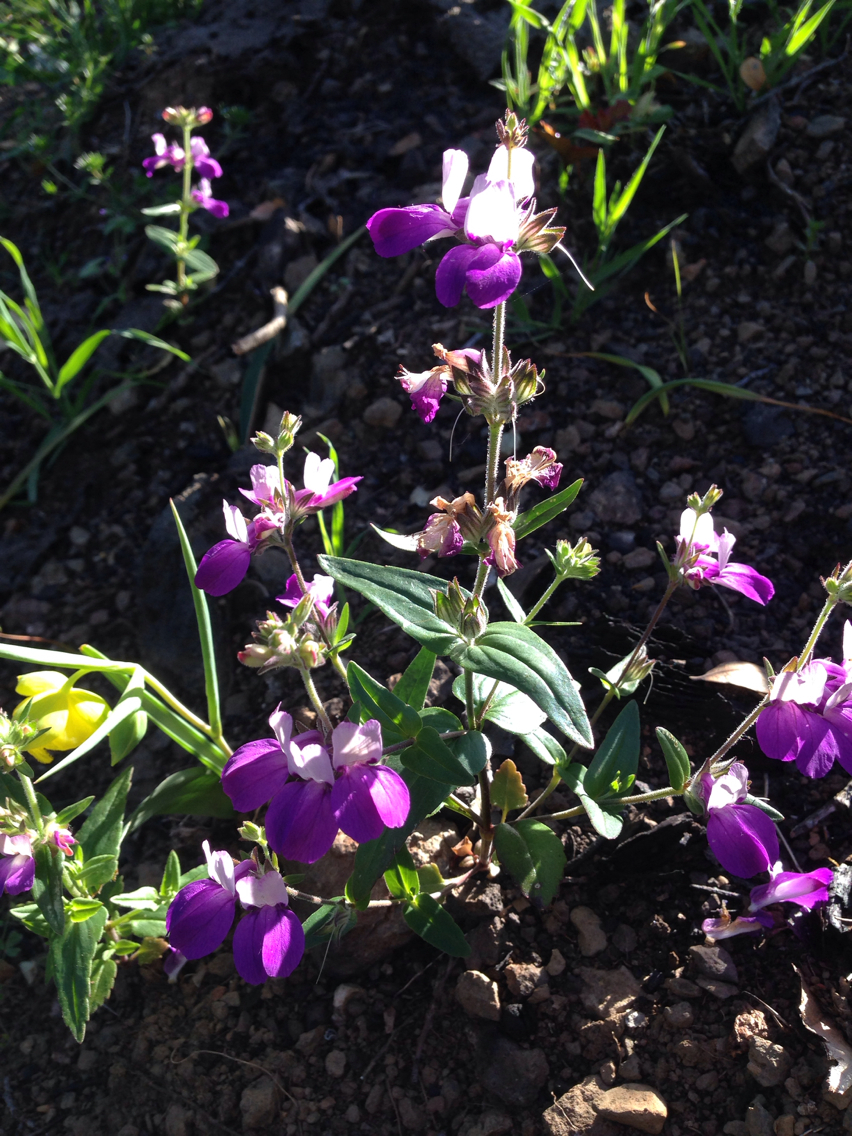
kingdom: Plantae
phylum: Tracheophyta
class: Magnoliopsida
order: Lamiales
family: Plantaginaceae
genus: Collinsia
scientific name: Collinsia heterophylla
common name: Chinese-houses
